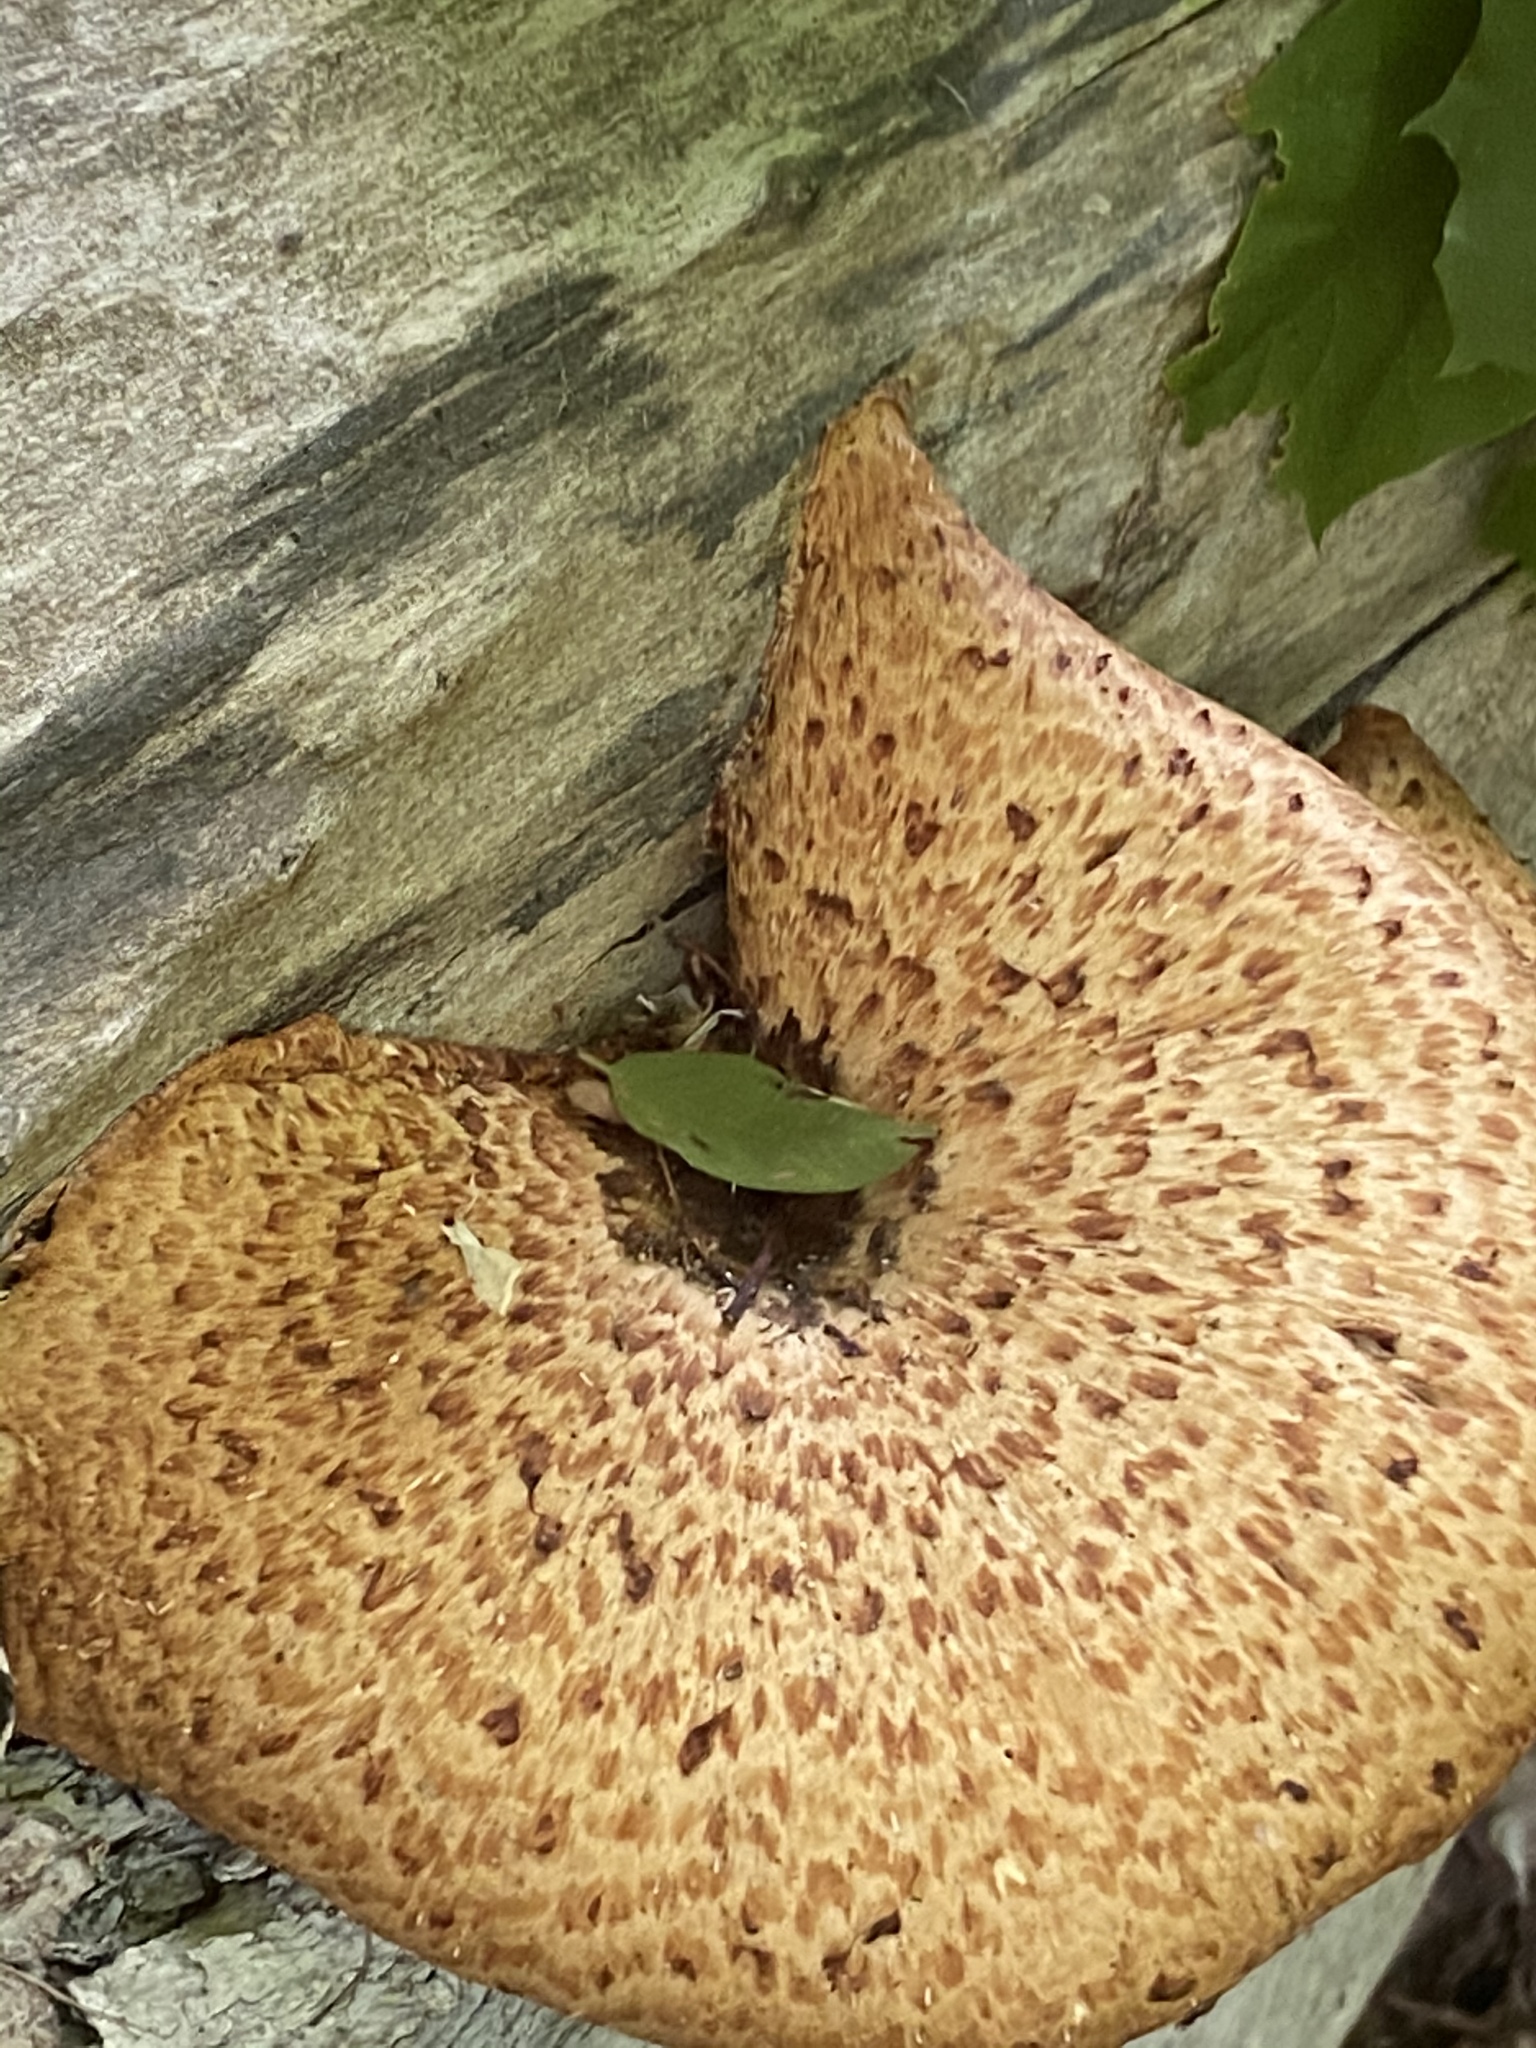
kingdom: Fungi
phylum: Basidiomycota
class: Agaricomycetes
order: Polyporales
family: Polyporaceae
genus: Cerioporus
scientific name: Cerioporus squamosus
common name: Dryad's saddle
